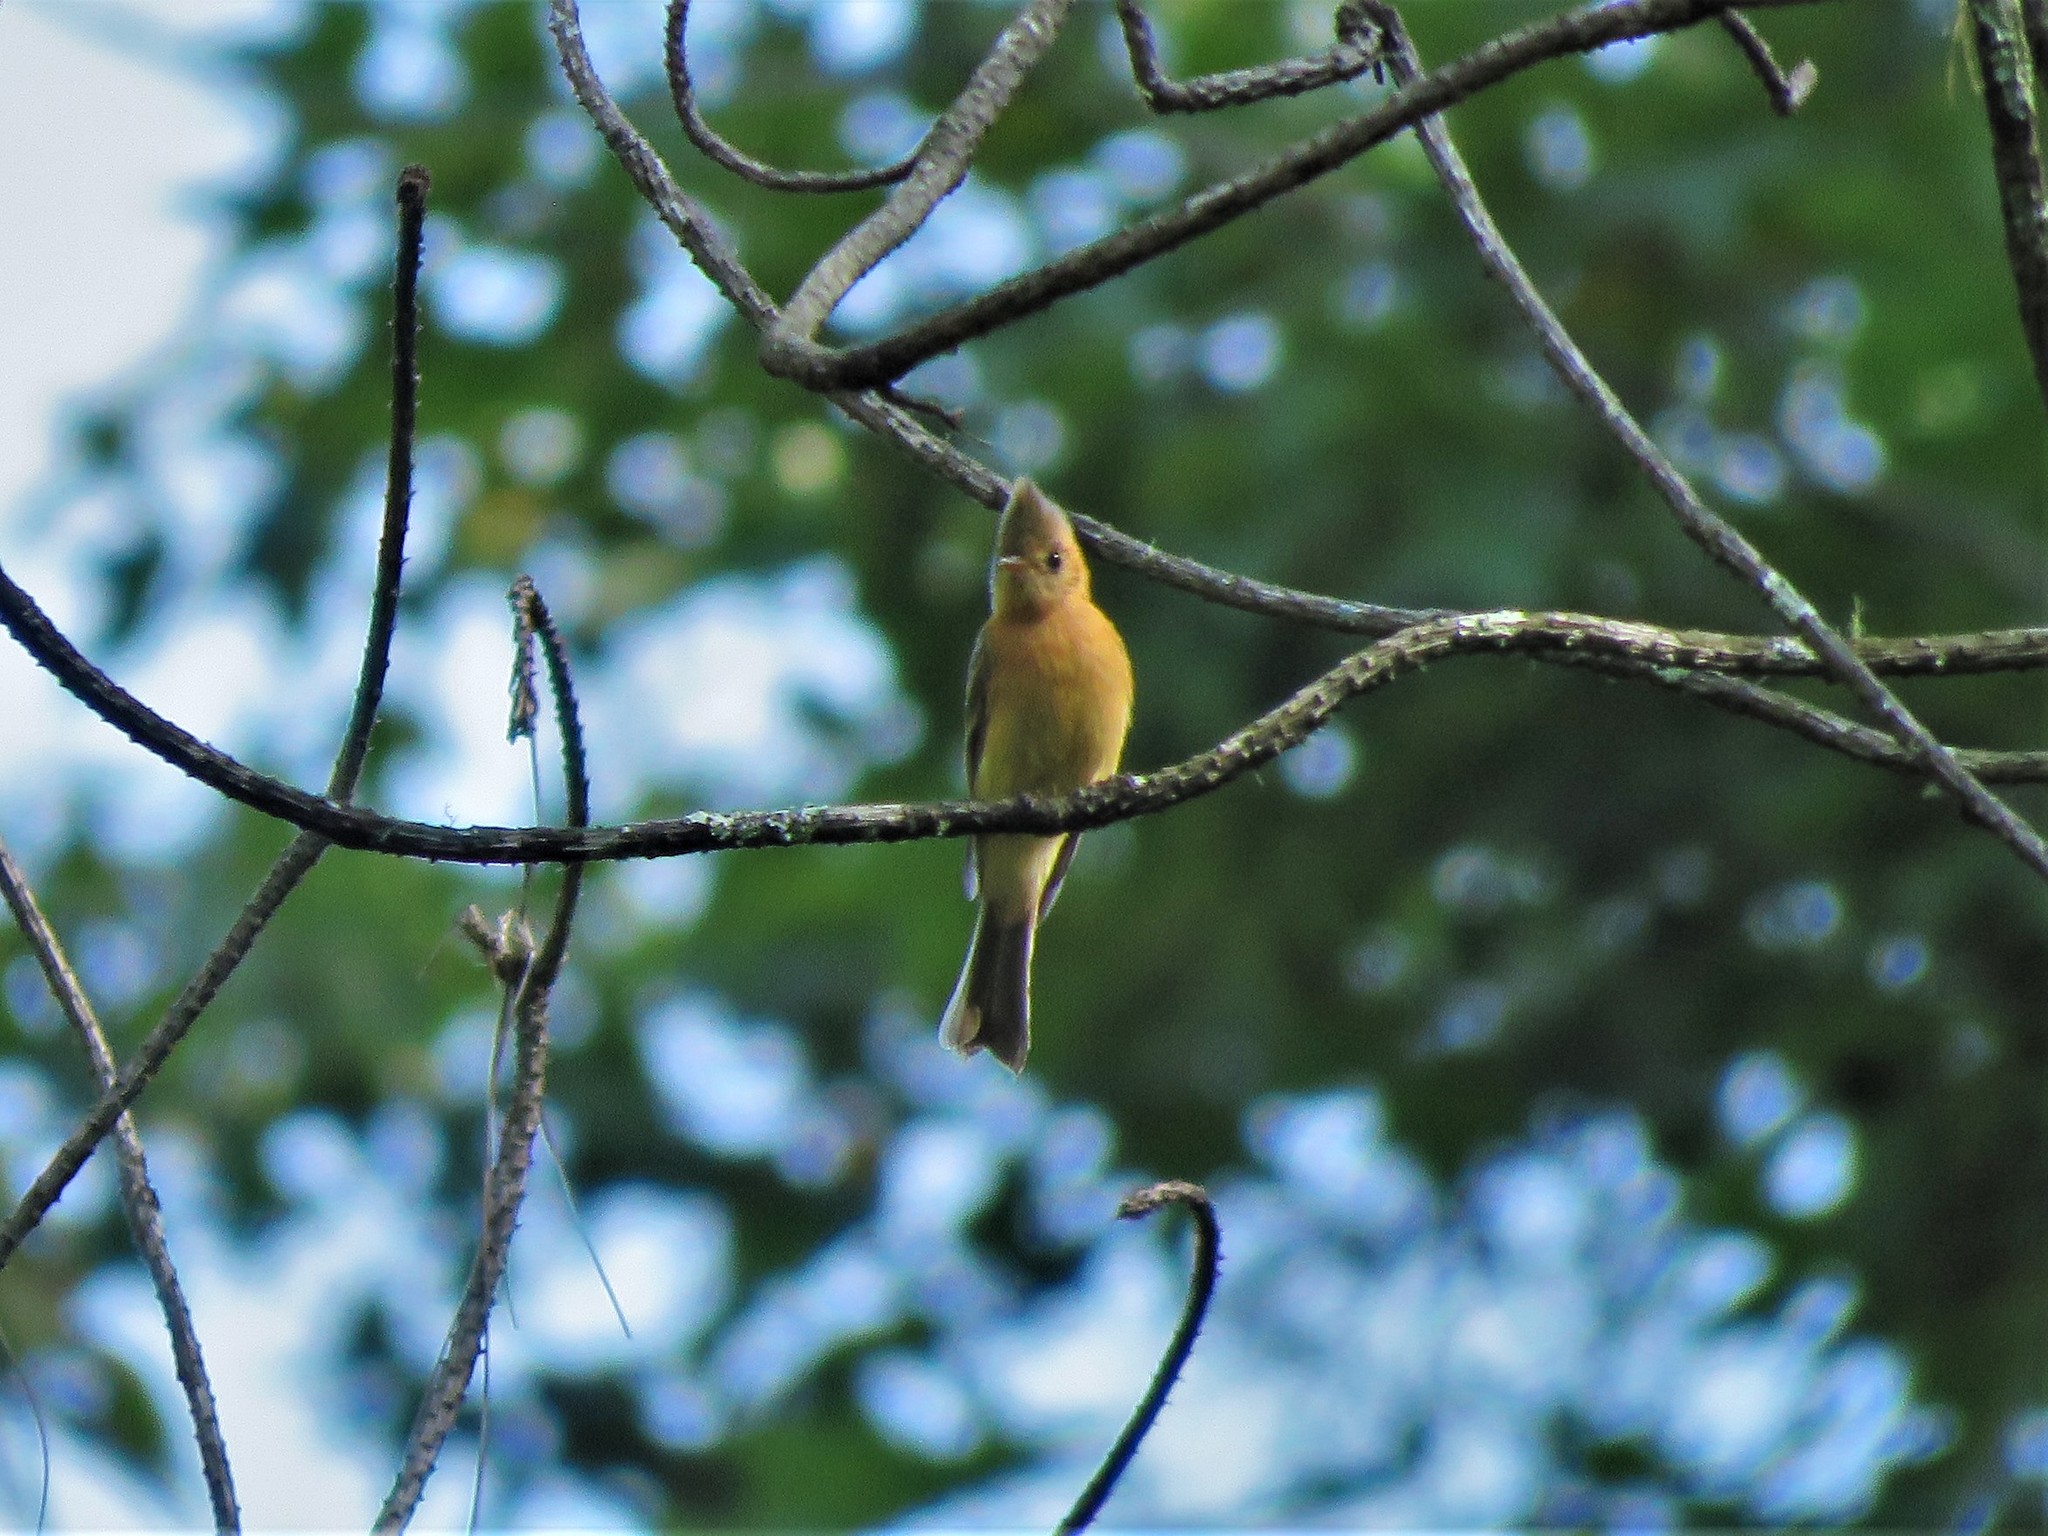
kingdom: Animalia
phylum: Chordata
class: Aves
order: Passeriformes
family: Tyrannidae
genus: Mitrephanes
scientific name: Mitrephanes phaeocercus
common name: Northern tufted flycatcher
